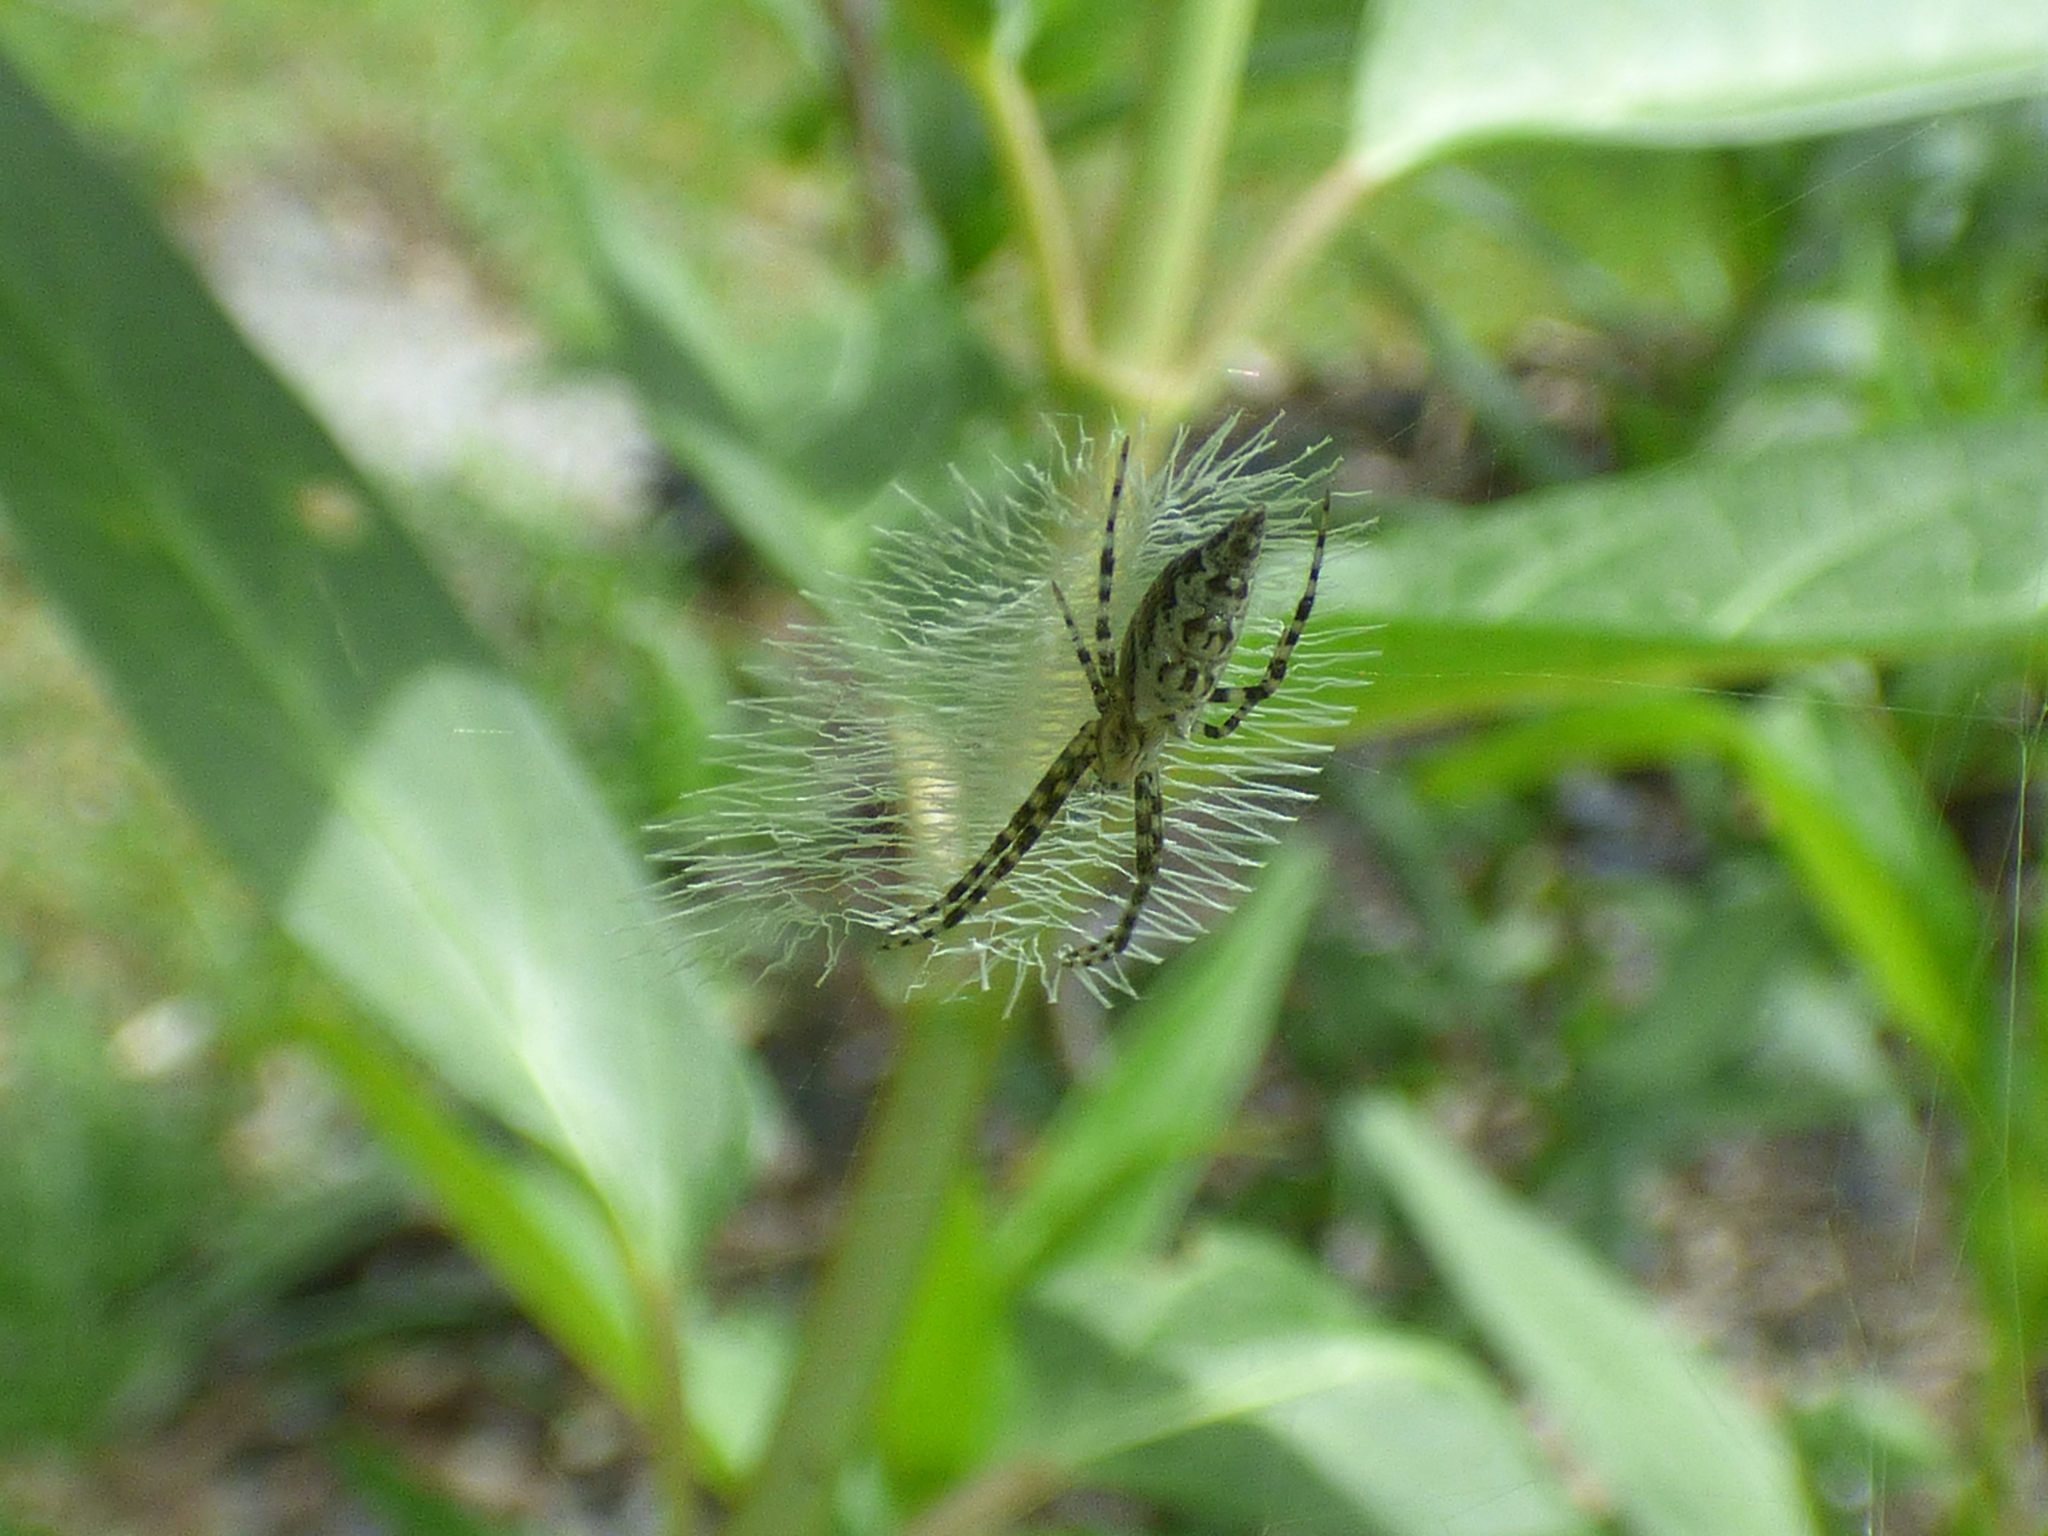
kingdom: Animalia
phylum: Arthropoda
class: Arachnida
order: Araneae
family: Araneidae
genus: Argiope
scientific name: Argiope aurantia
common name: Orb weavers
